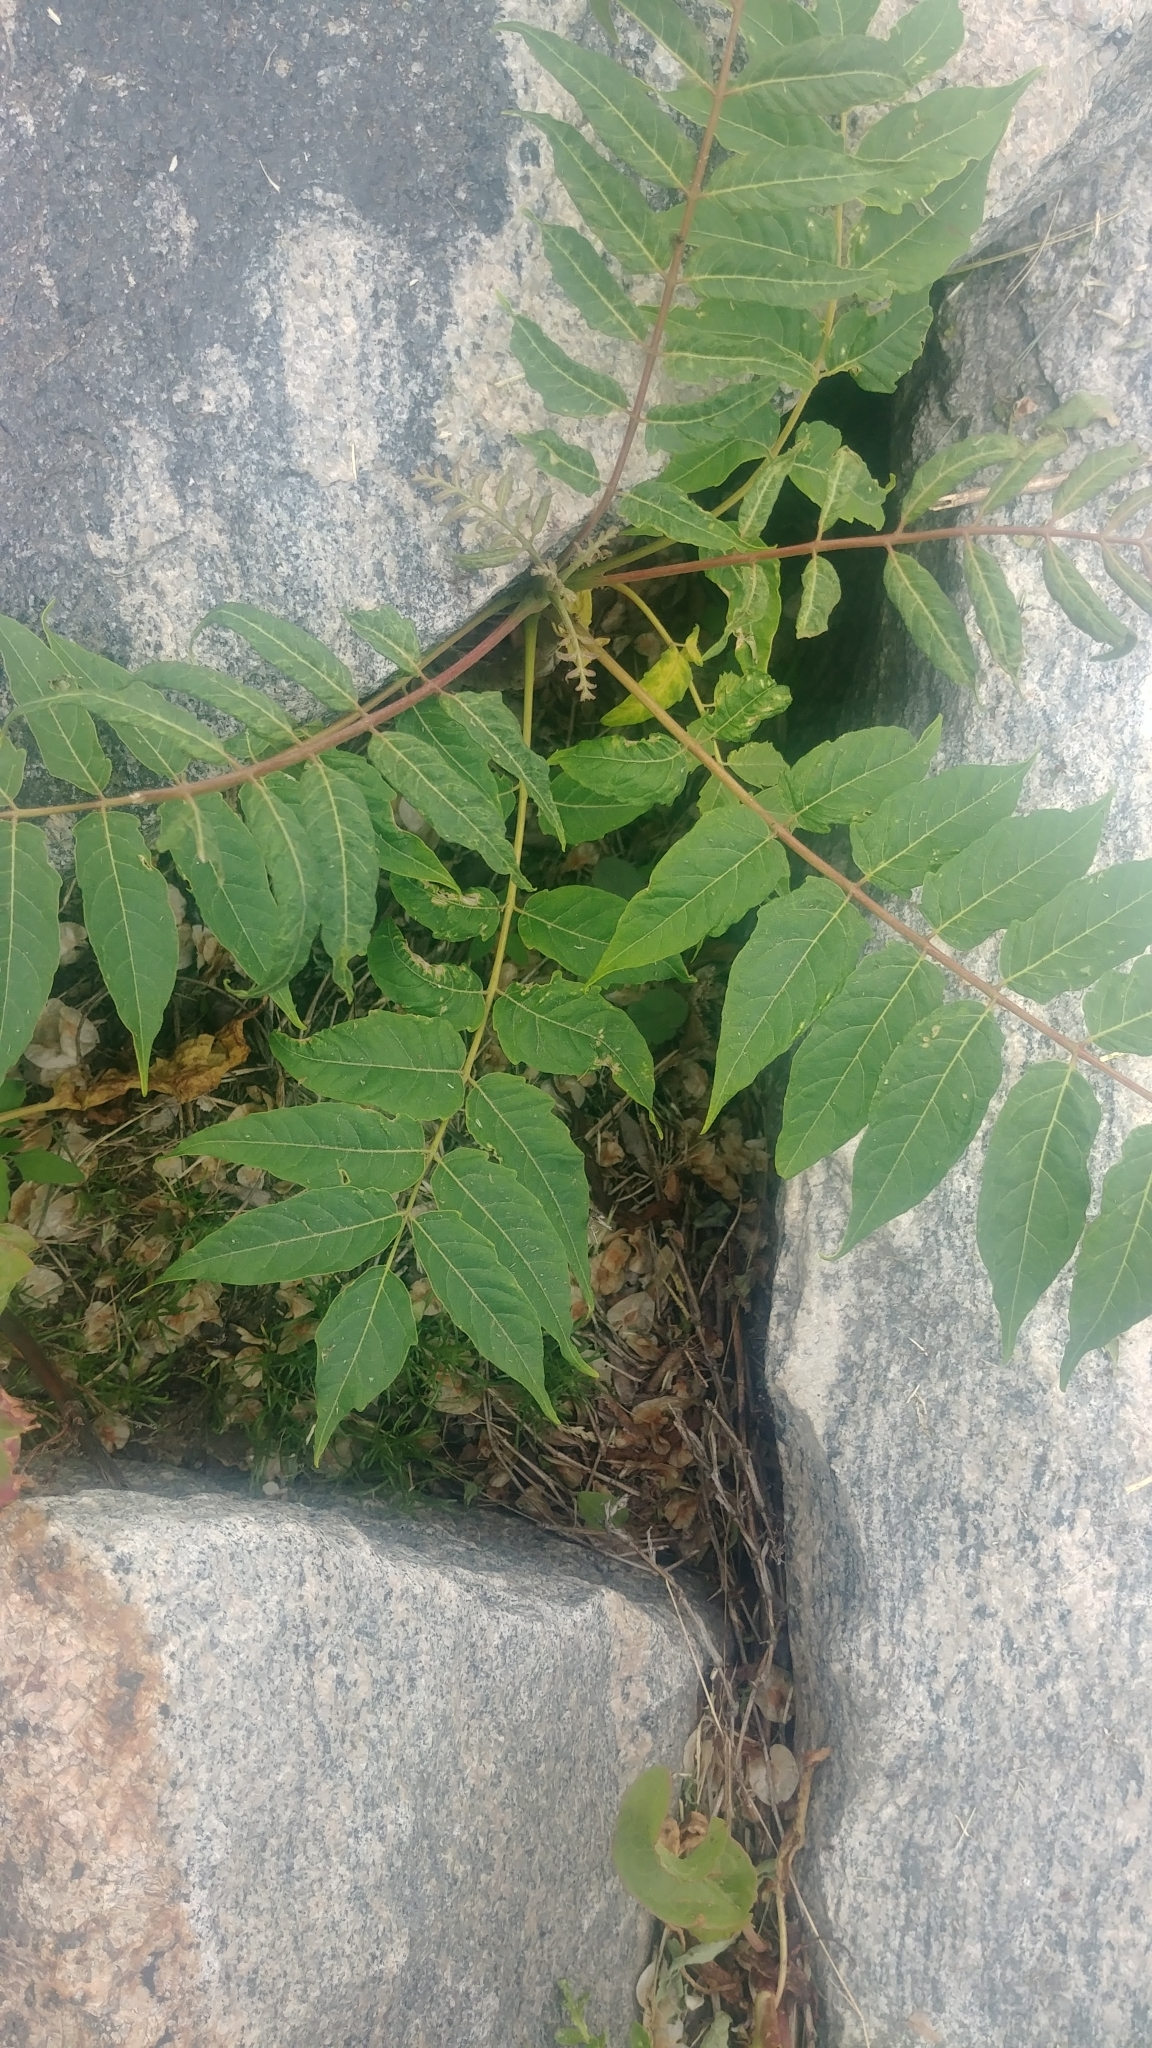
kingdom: Plantae
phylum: Tracheophyta
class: Magnoliopsida
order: Sapindales
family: Simaroubaceae
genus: Ailanthus
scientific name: Ailanthus altissima
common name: Tree-of-heaven
